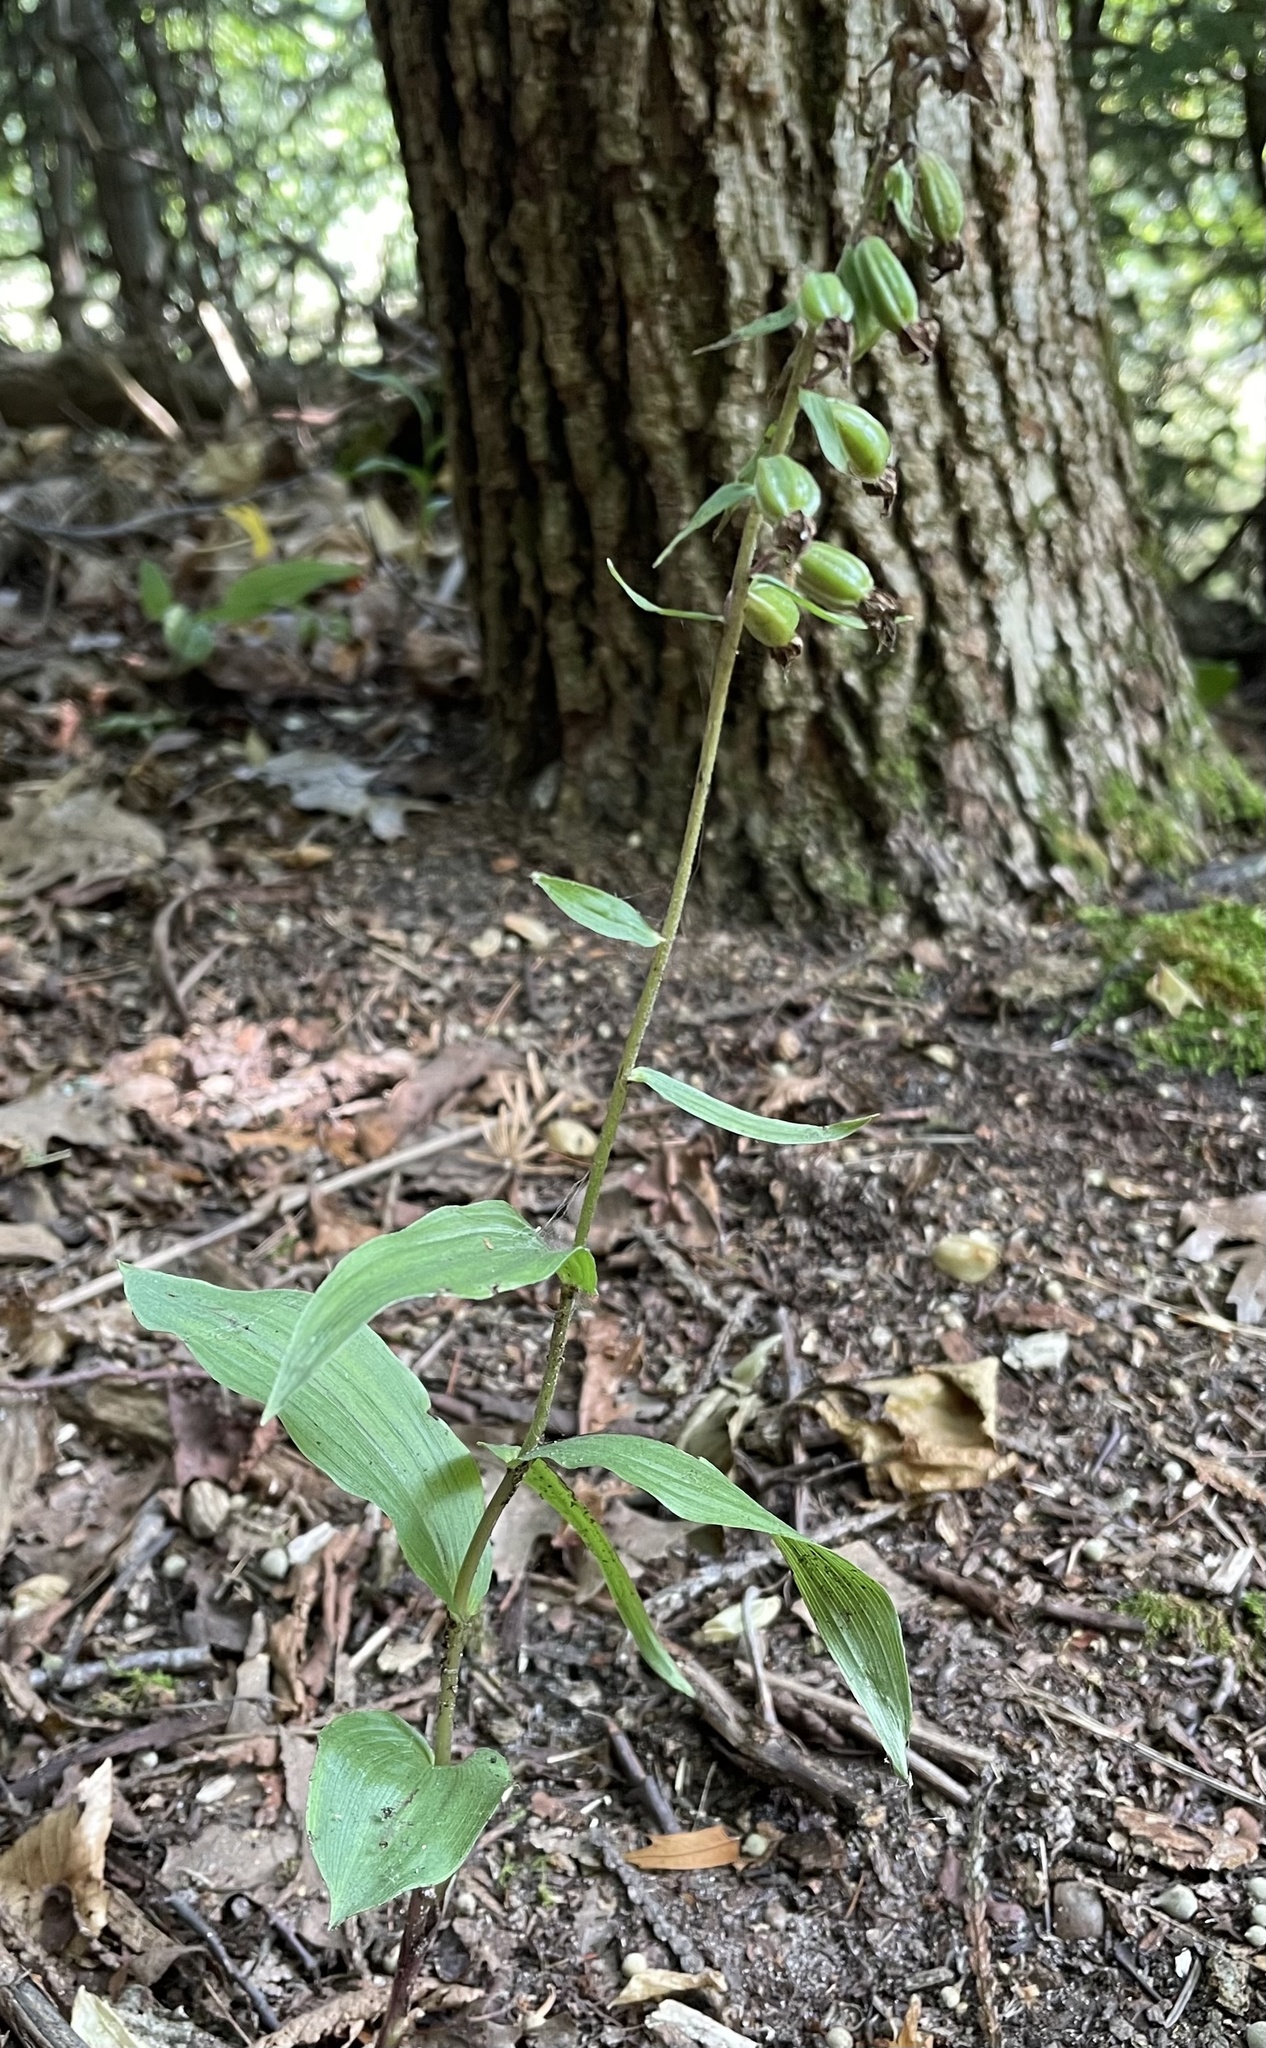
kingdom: Plantae
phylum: Tracheophyta
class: Liliopsida
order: Asparagales
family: Orchidaceae
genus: Epipactis
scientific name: Epipactis helleborine
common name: Broad-leaved helleborine
